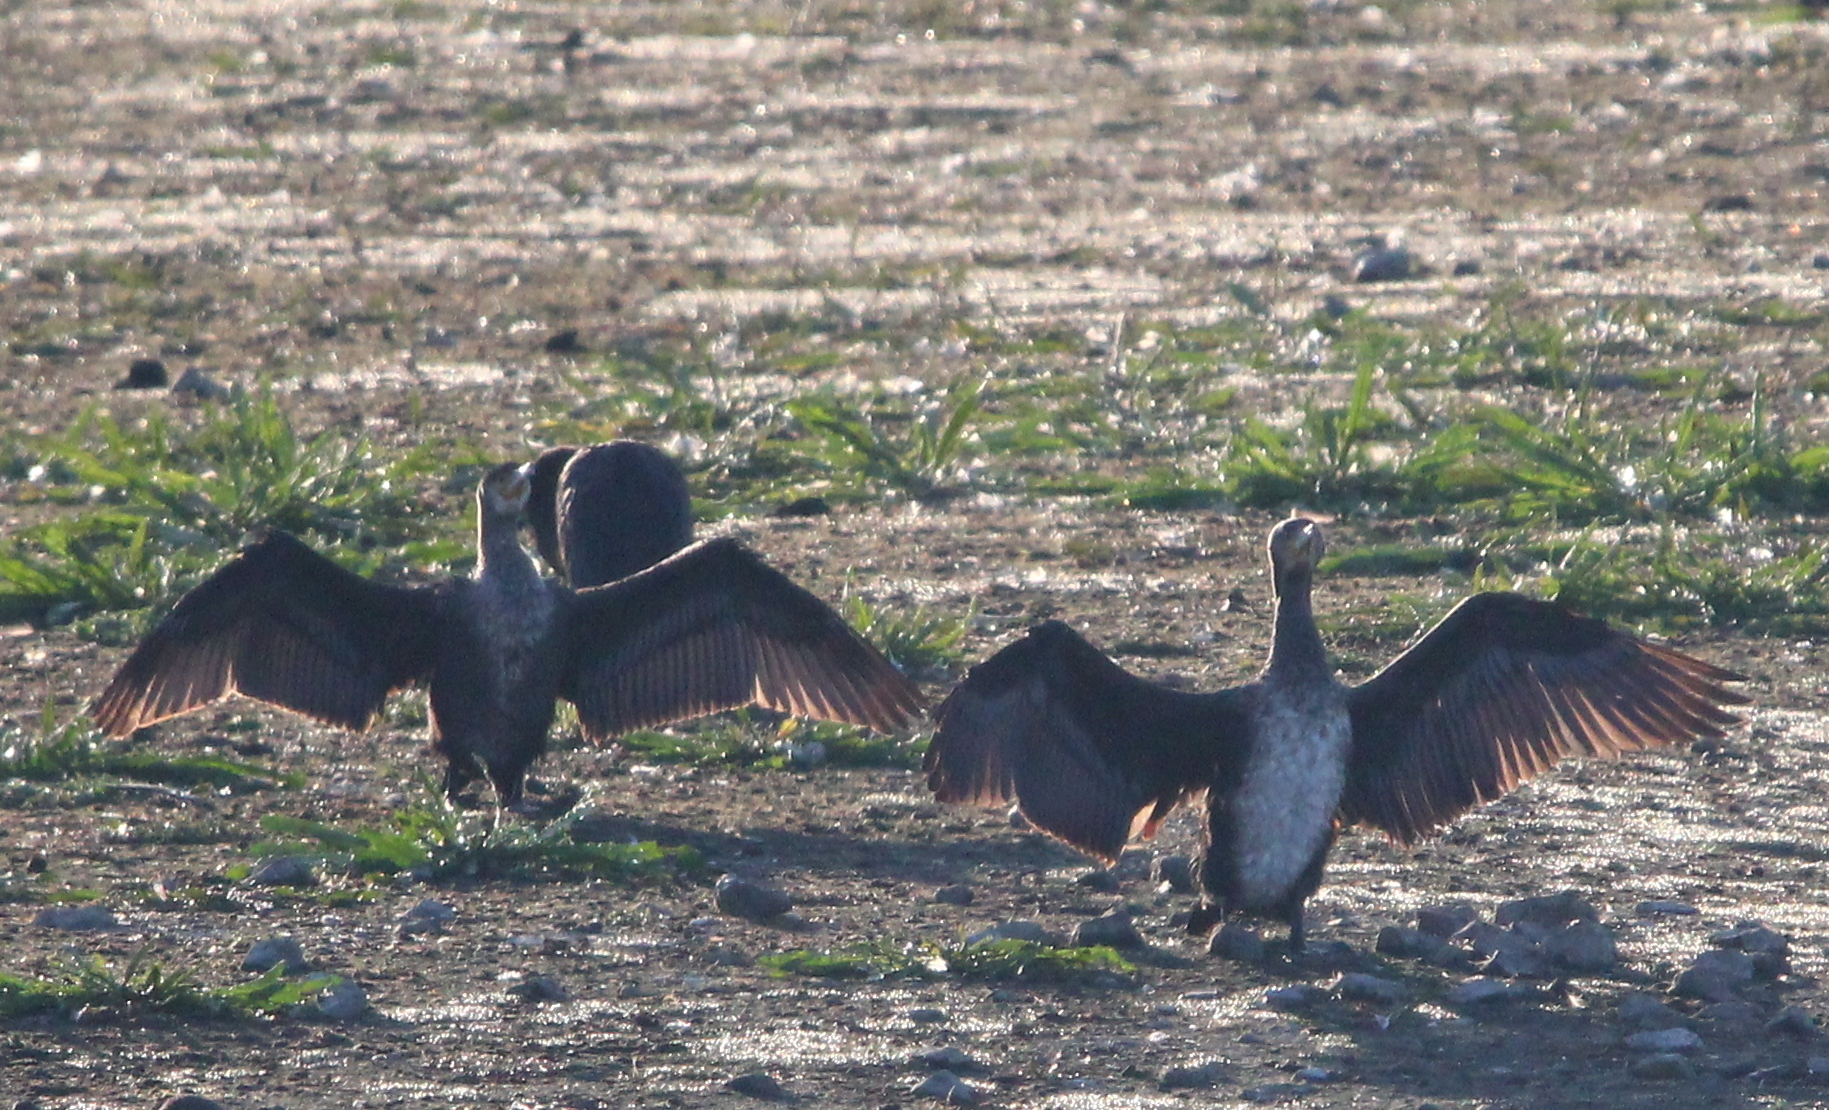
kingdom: Animalia
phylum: Chordata
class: Aves
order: Suliformes
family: Phalacrocoracidae
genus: Phalacrocorax
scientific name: Phalacrocorax carbo
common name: Great cormorant
